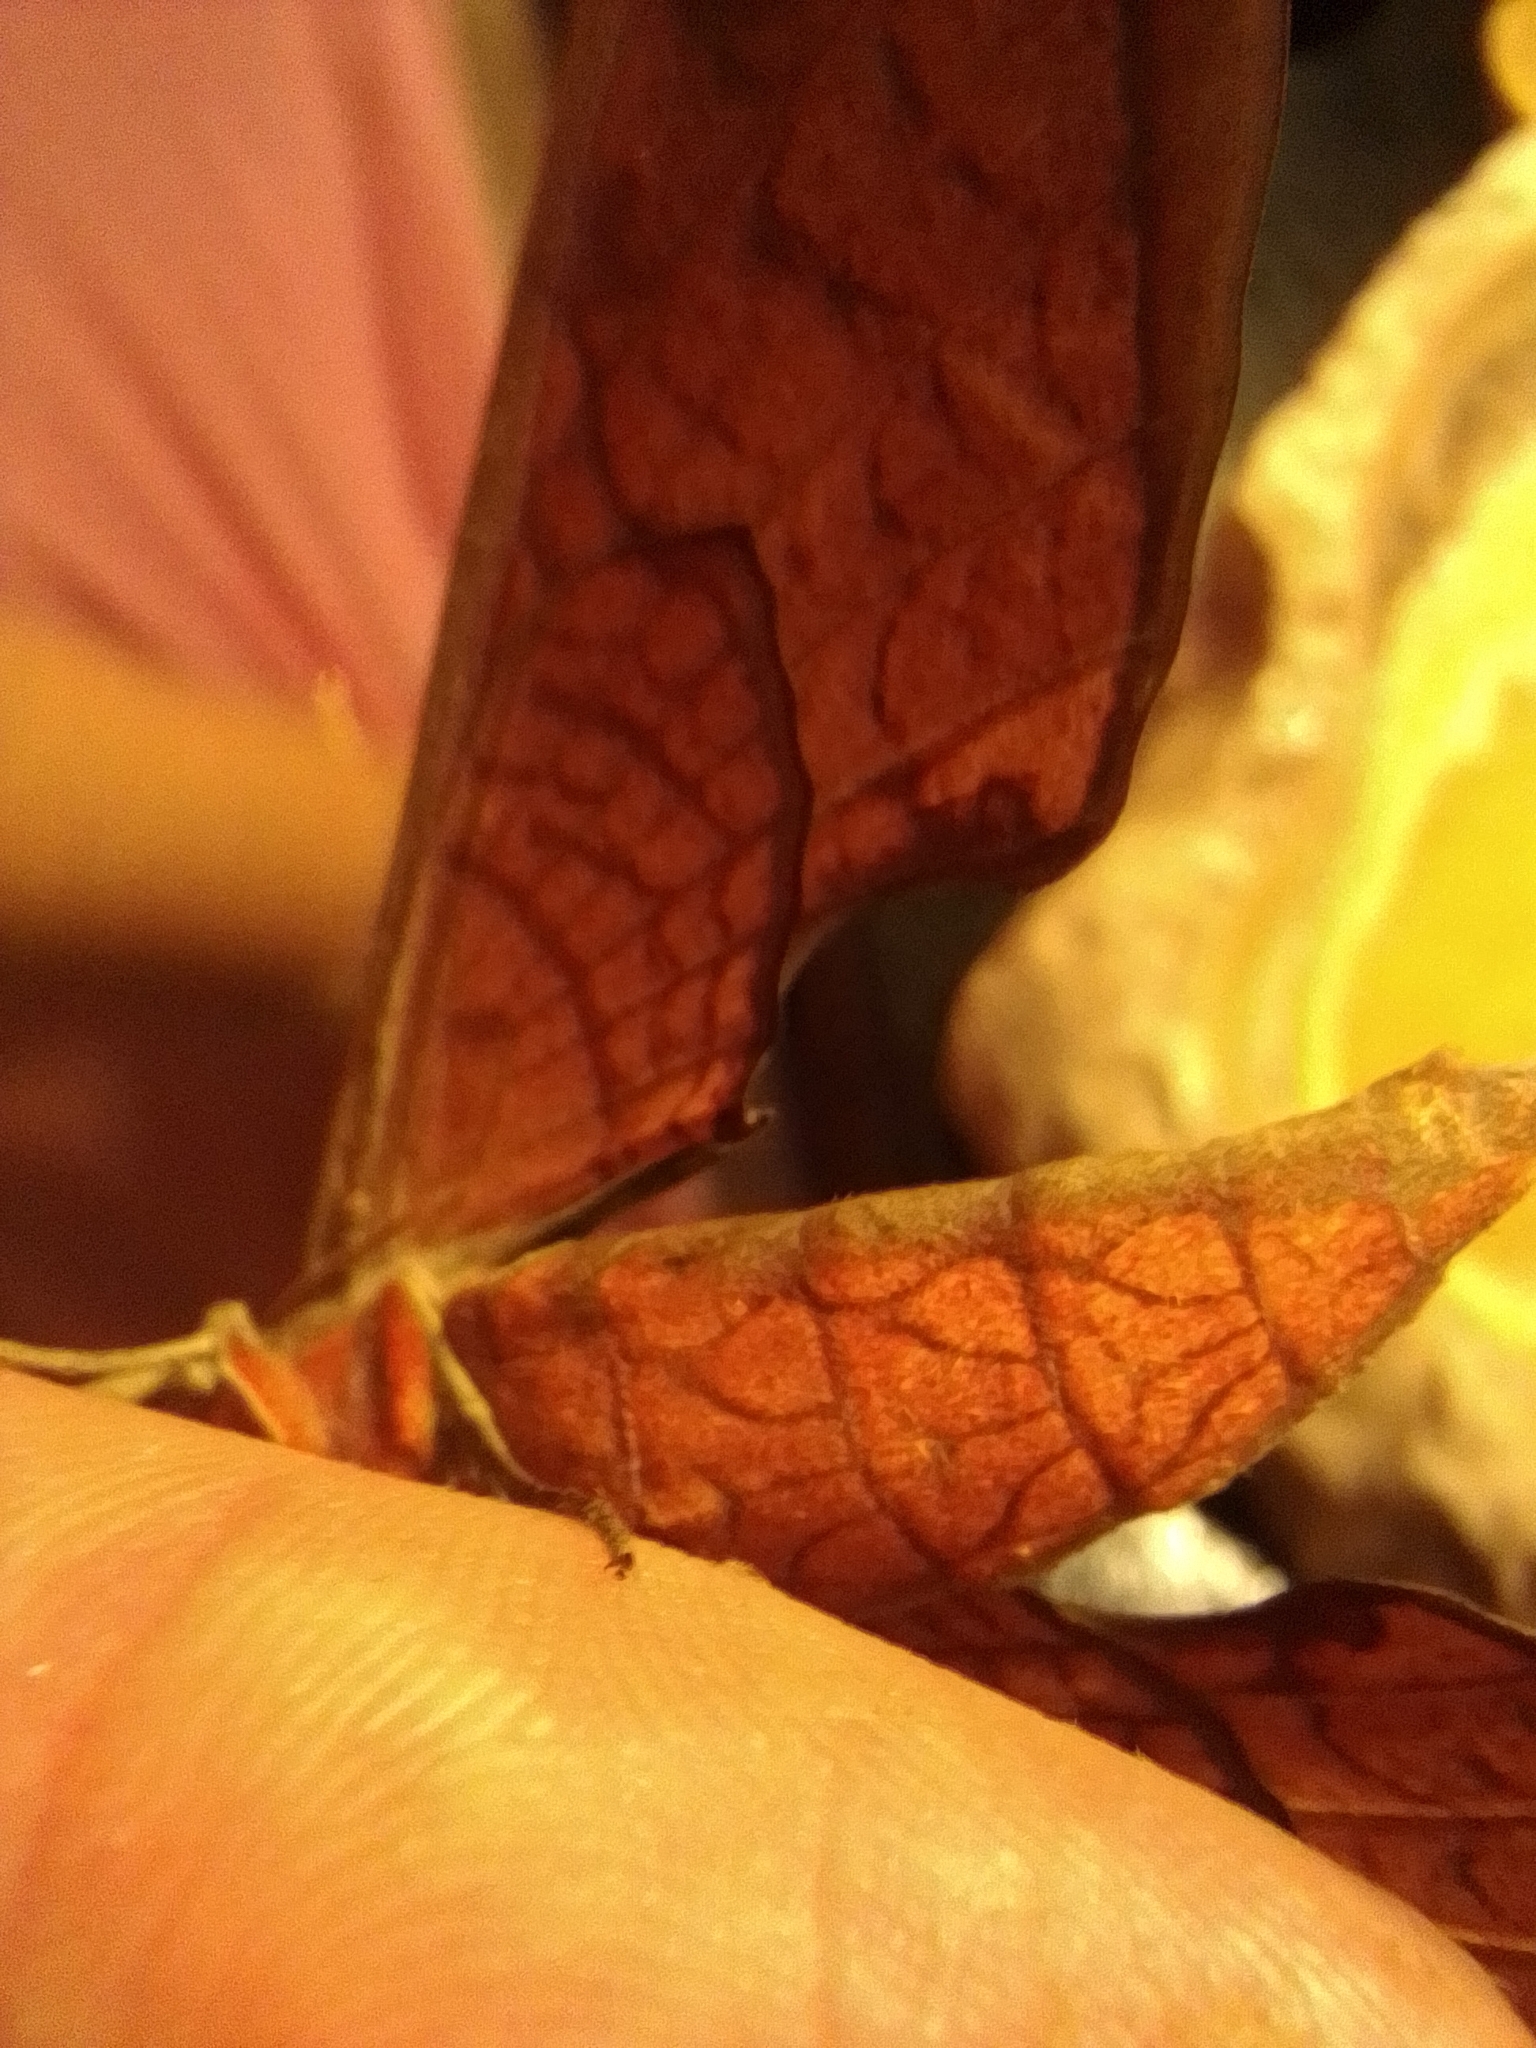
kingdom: Animalia
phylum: Arthropoda
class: Insecta
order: Lepidoptera
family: Sphingidae
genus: Protambulyx
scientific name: Protambulyx strigilis
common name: Streaked sphinx
